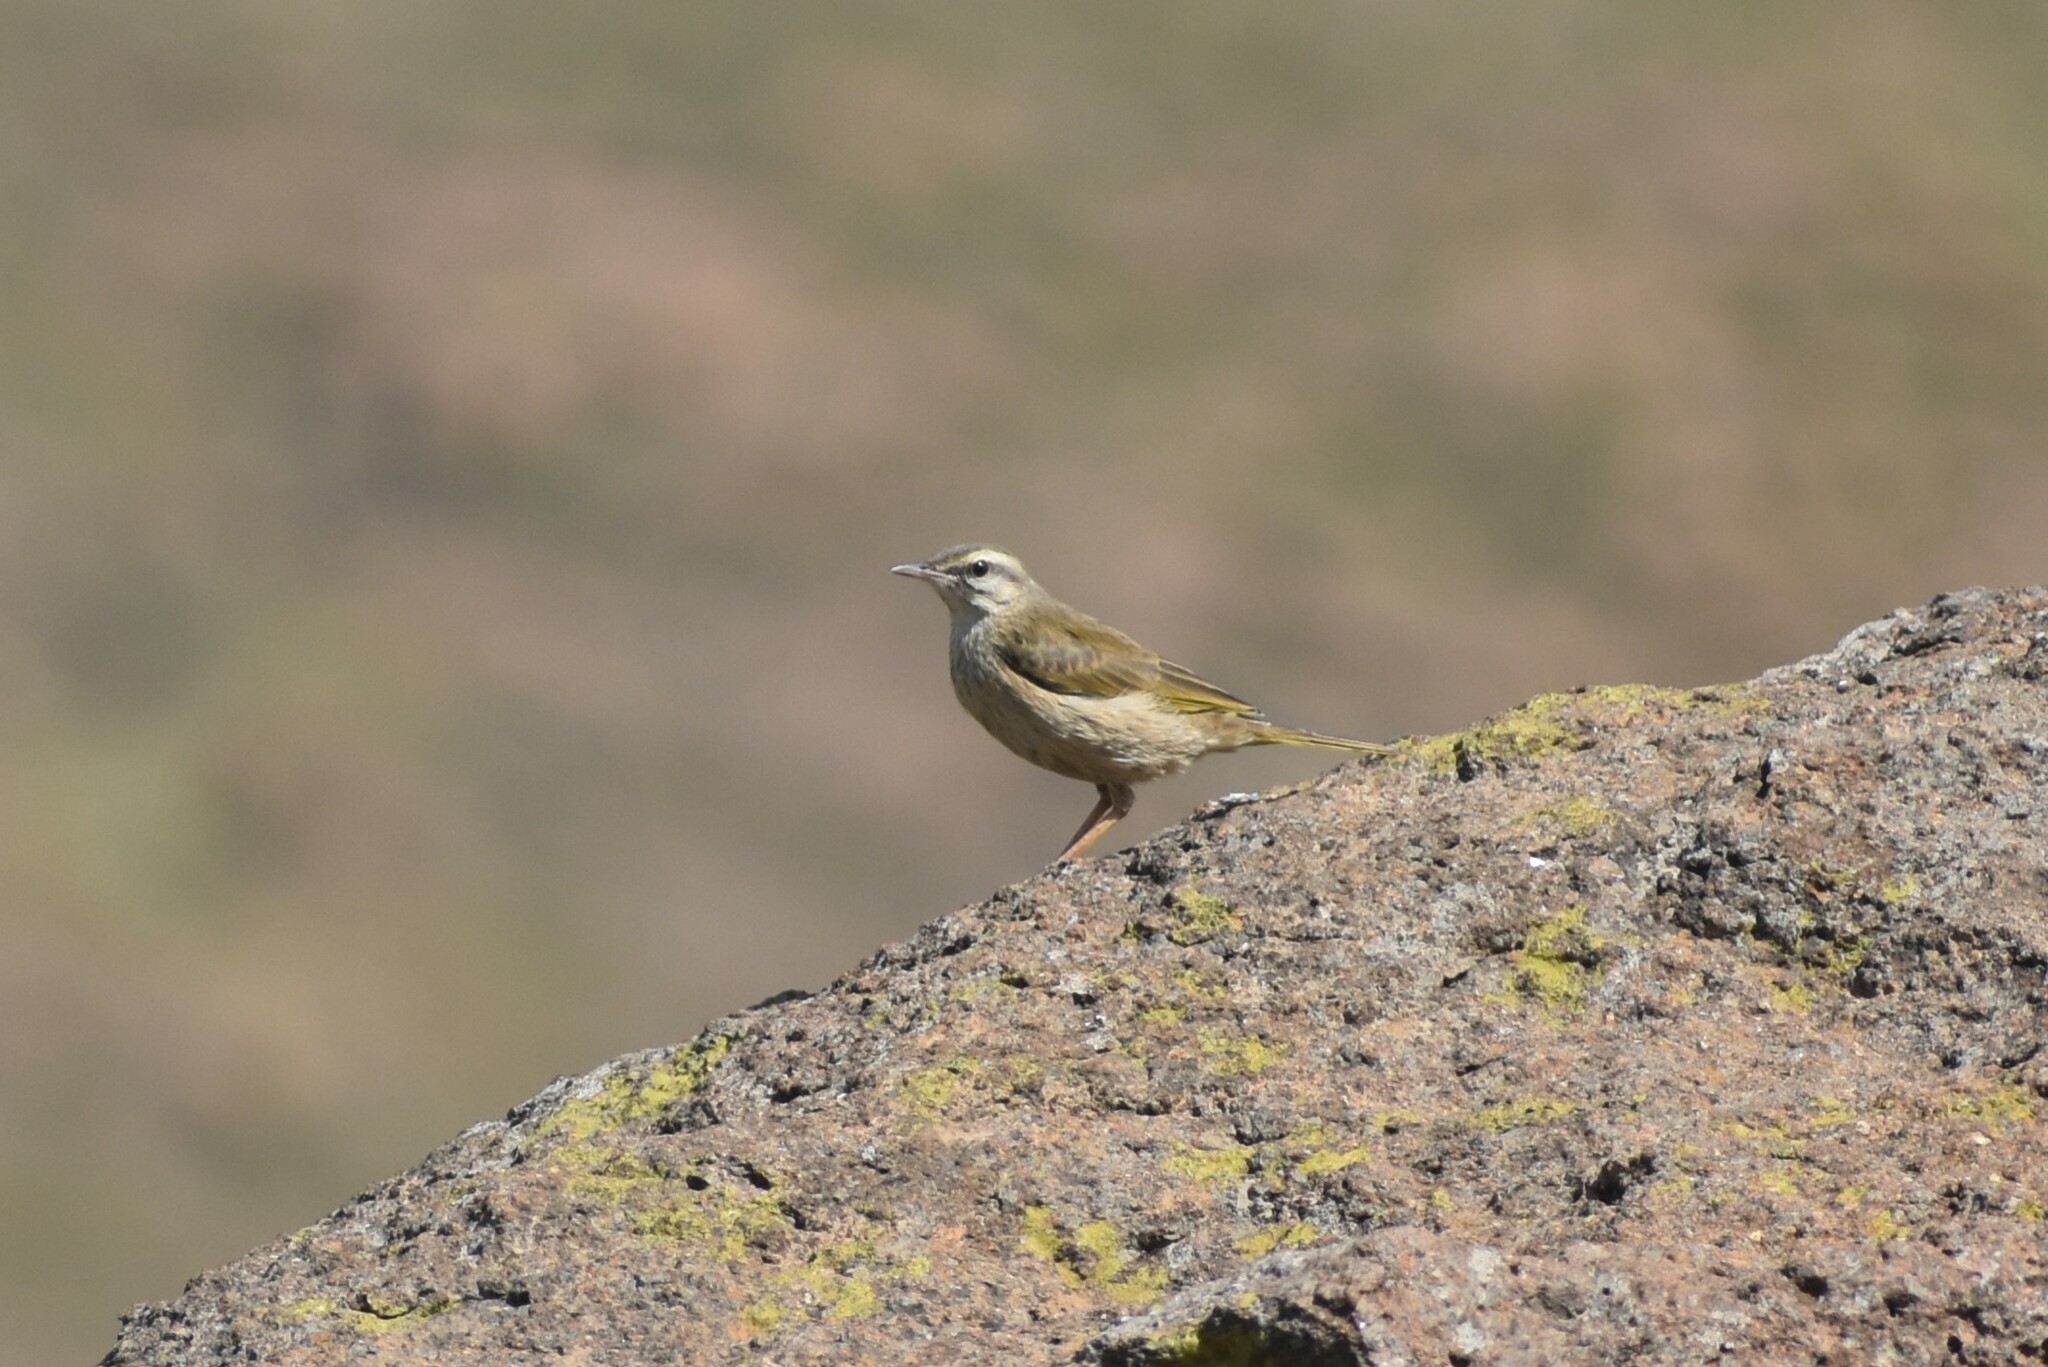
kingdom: Animalia
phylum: Chordata
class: Aves
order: Passeriformes
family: Motacillidae
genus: Anthus
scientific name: Anthus crenatus
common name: African rock pipit
